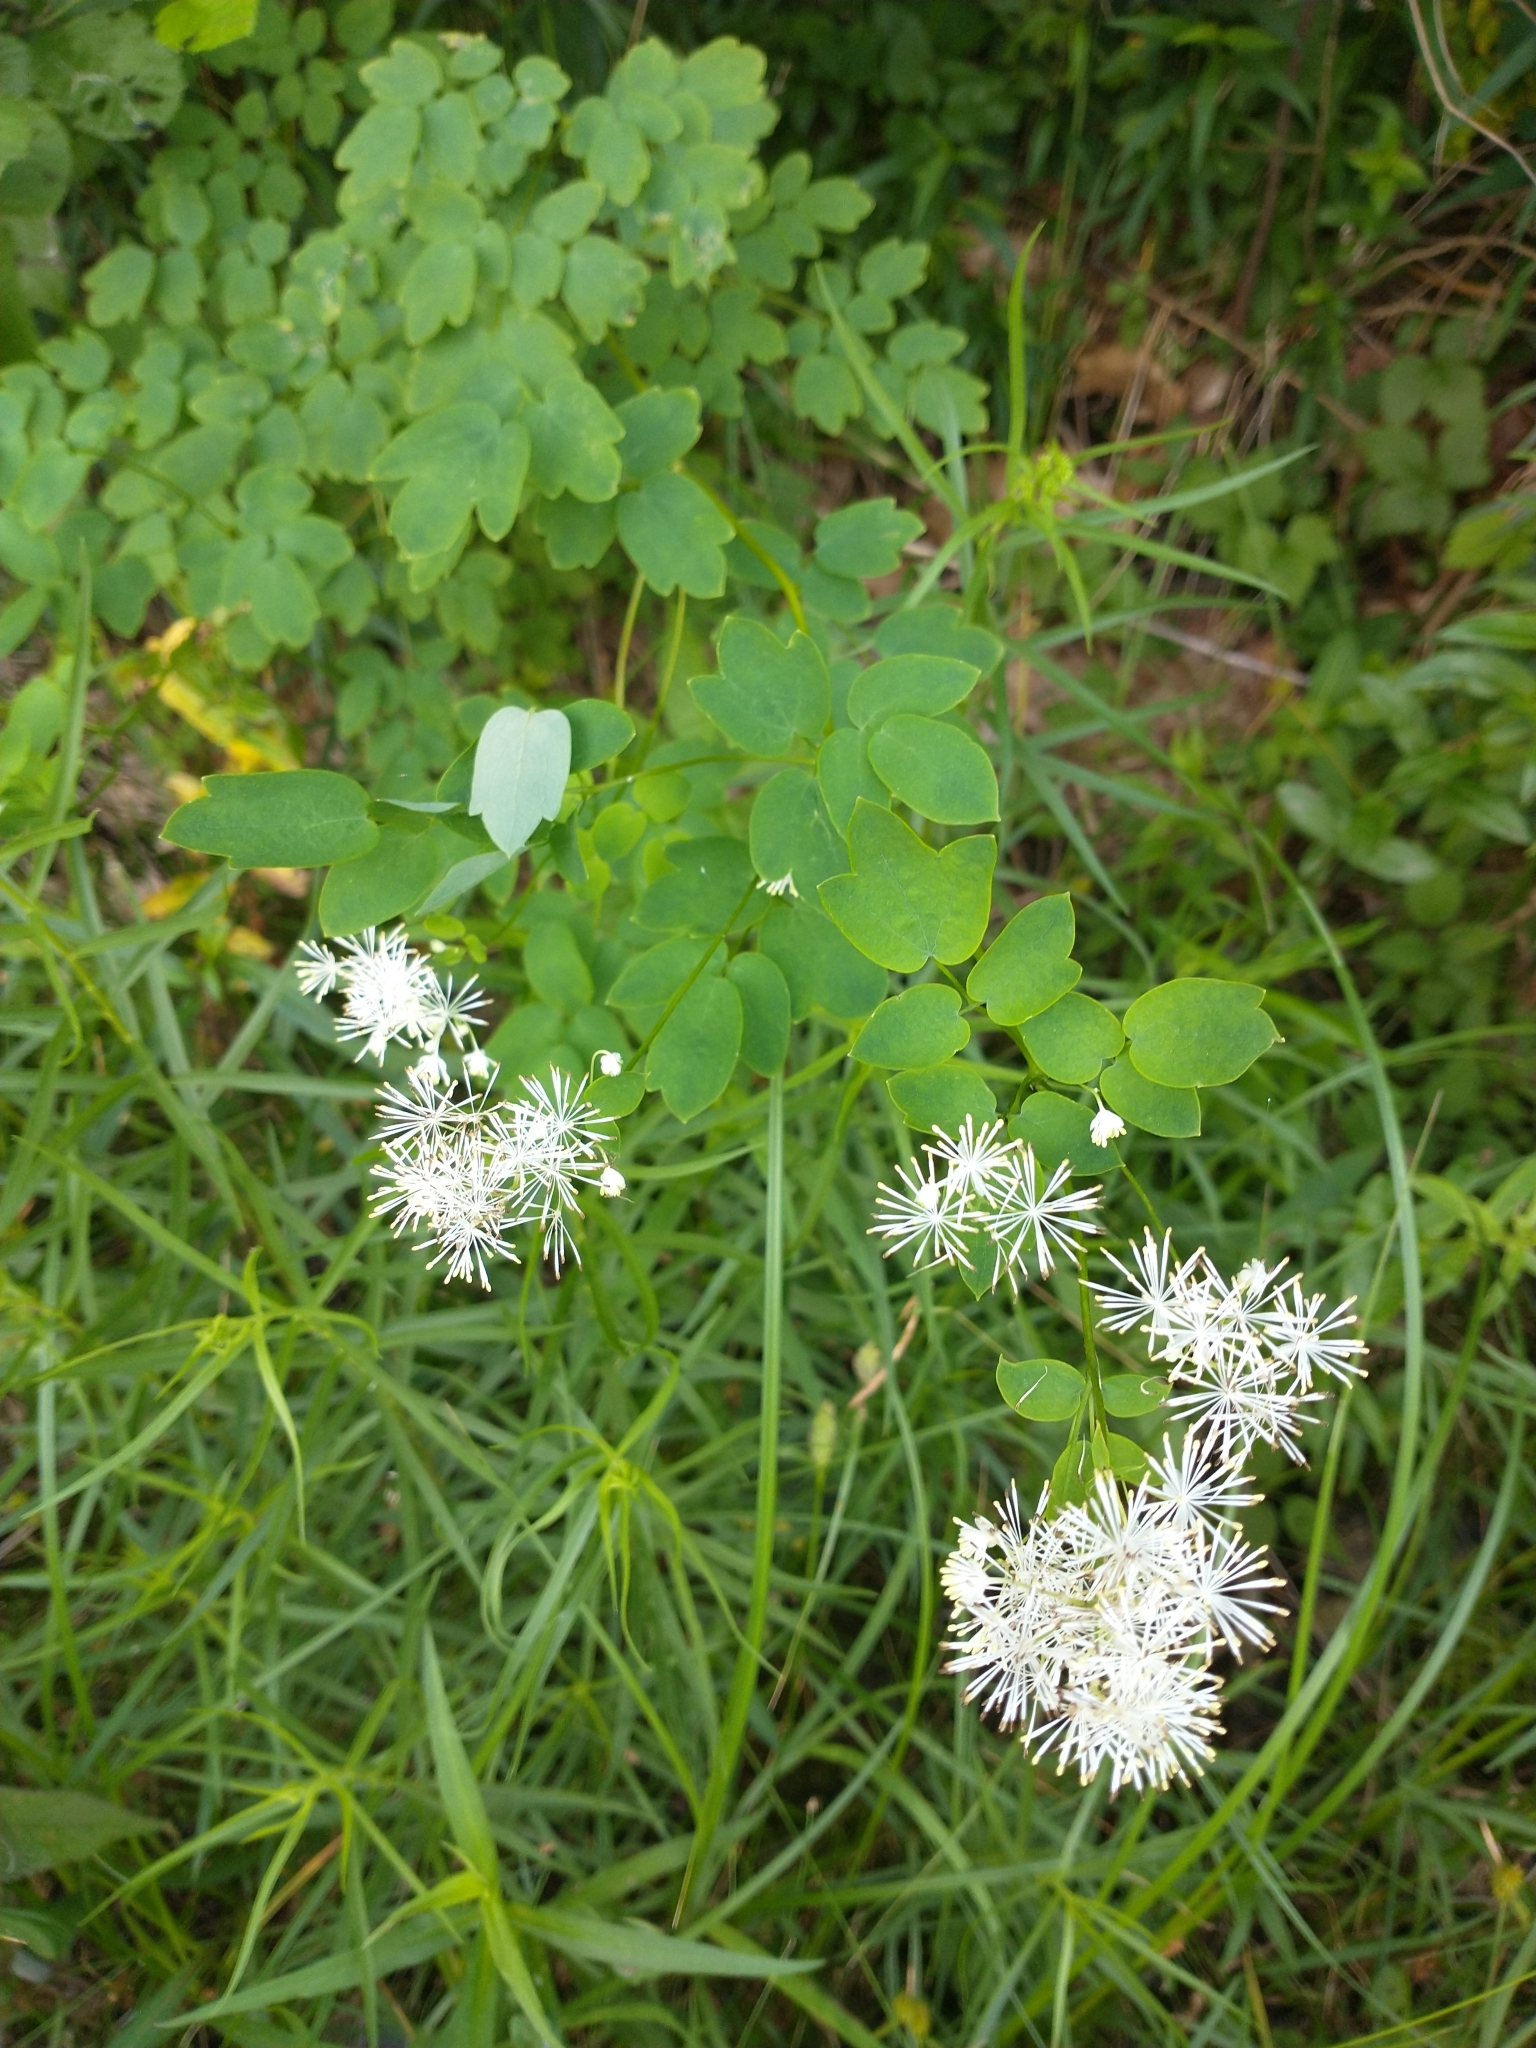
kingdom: Plantae
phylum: Tracheophyta
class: Magnoliopsida
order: Ranunculales
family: Ranunculaceae
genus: Thalictrum
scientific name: Thalictrum pubescens
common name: King-of-the-meadow
